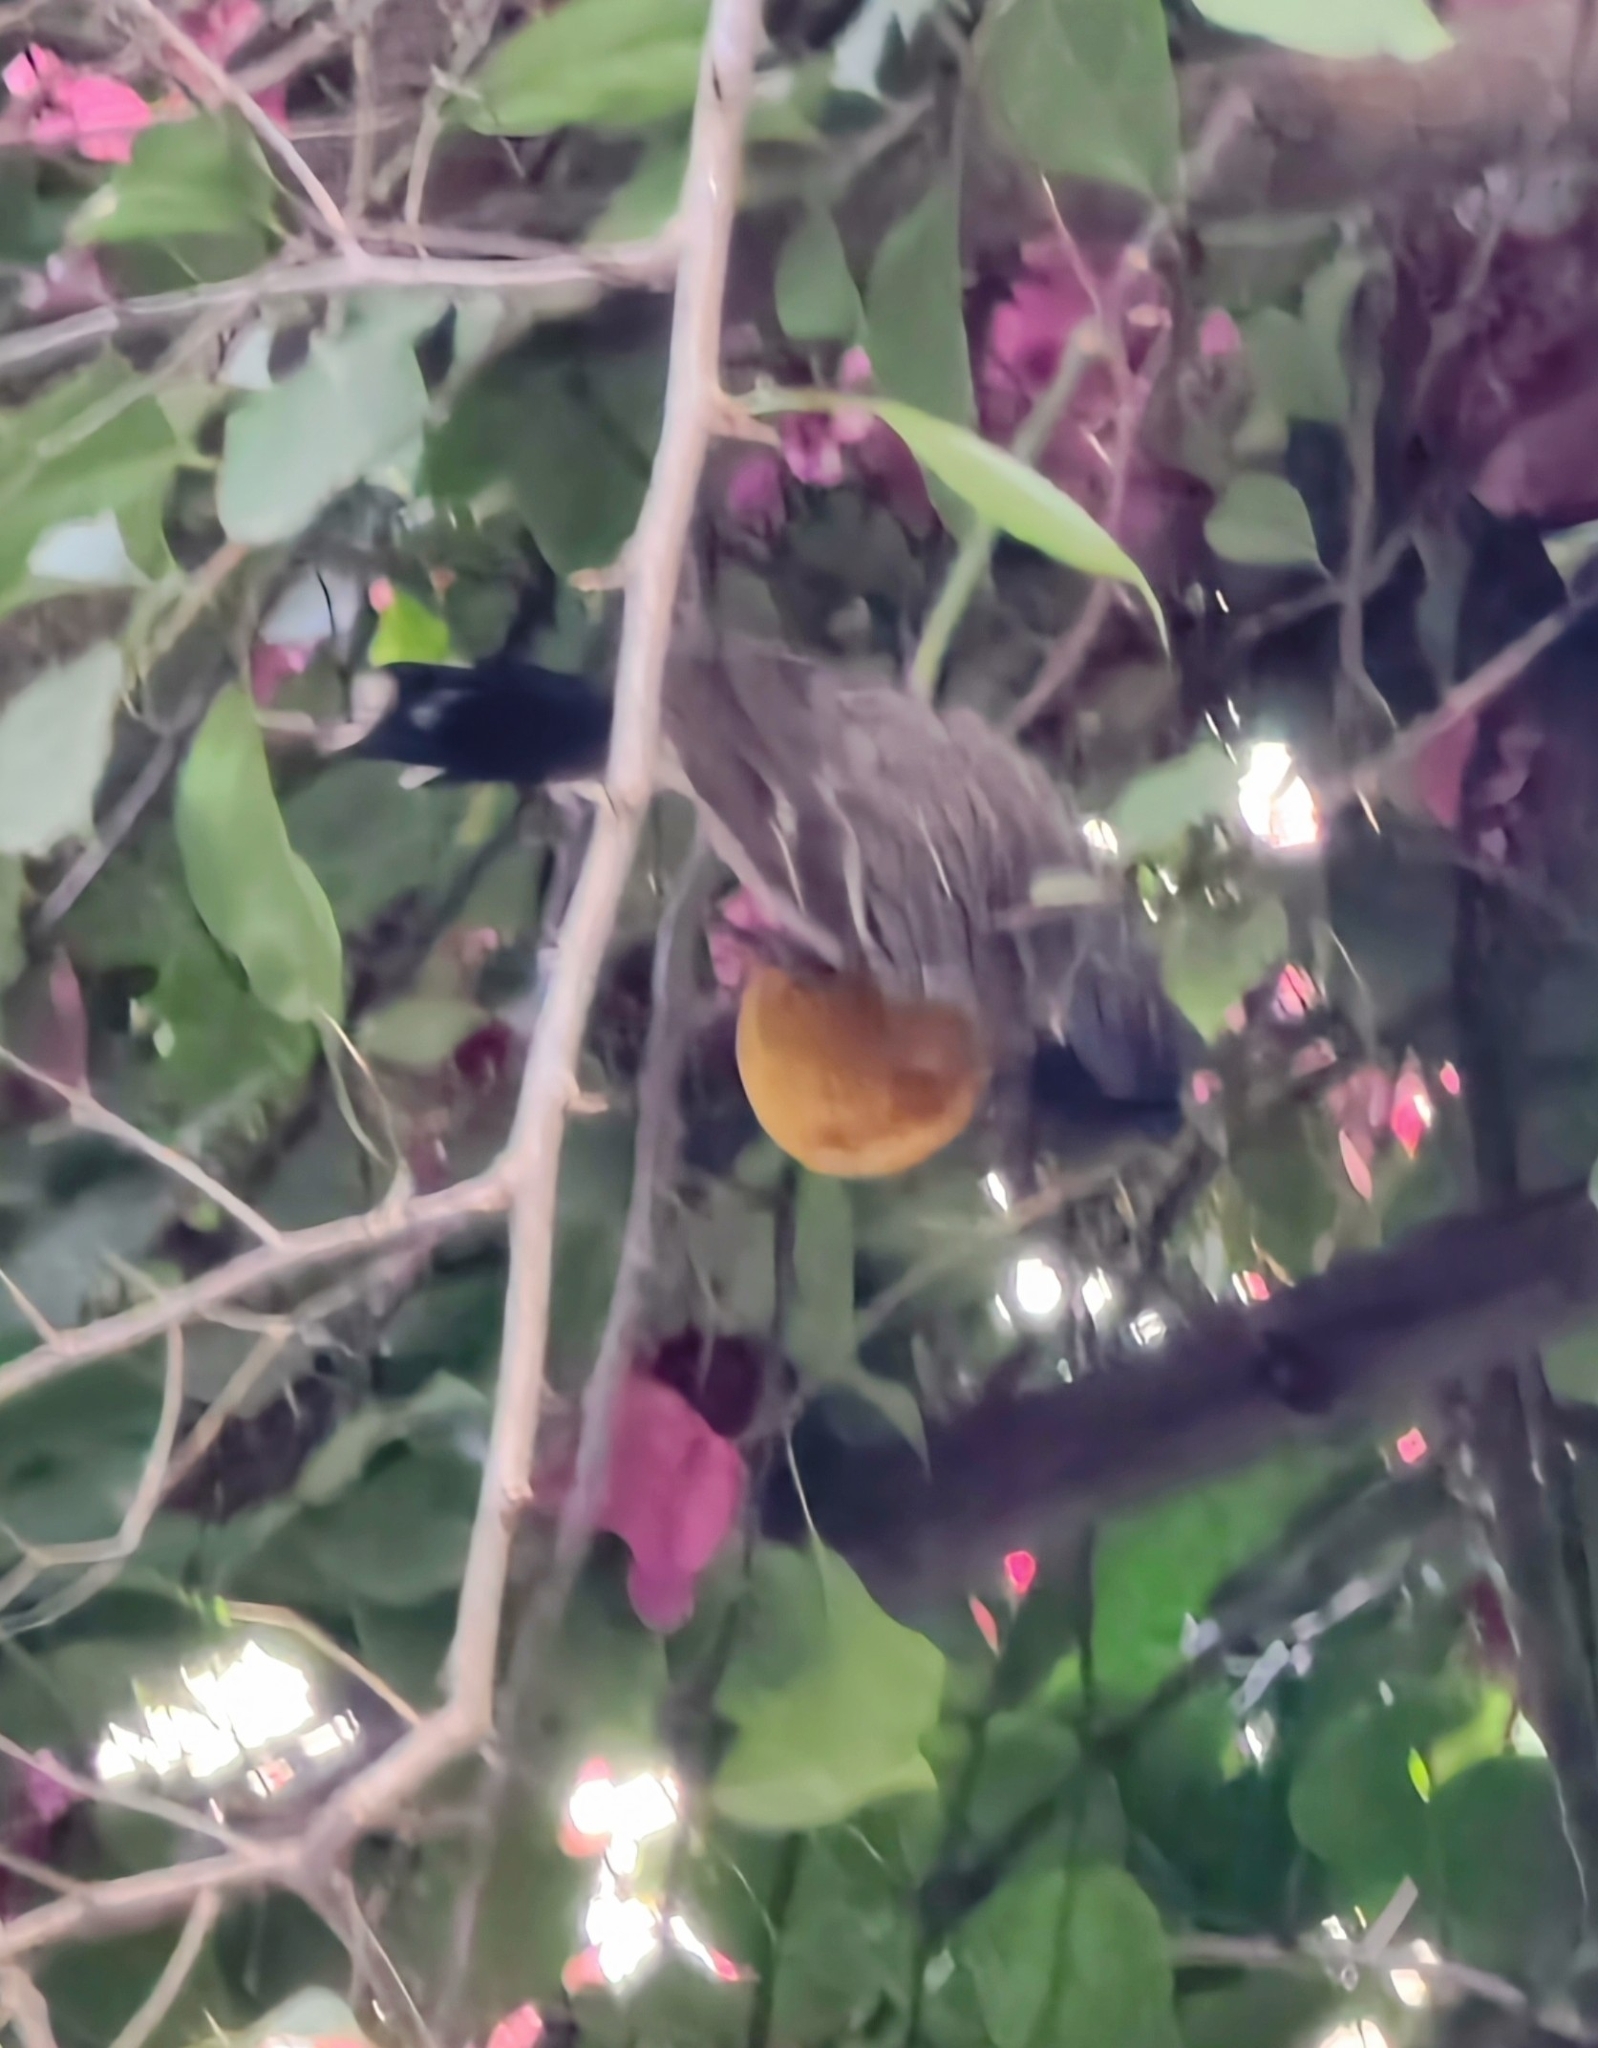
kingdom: Animalia
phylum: Chordata
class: Aves
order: Passeriformes
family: Pycnonotidae
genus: Pycnonotus
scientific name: Pycnonotus cafer
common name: Red-vented bulbul
